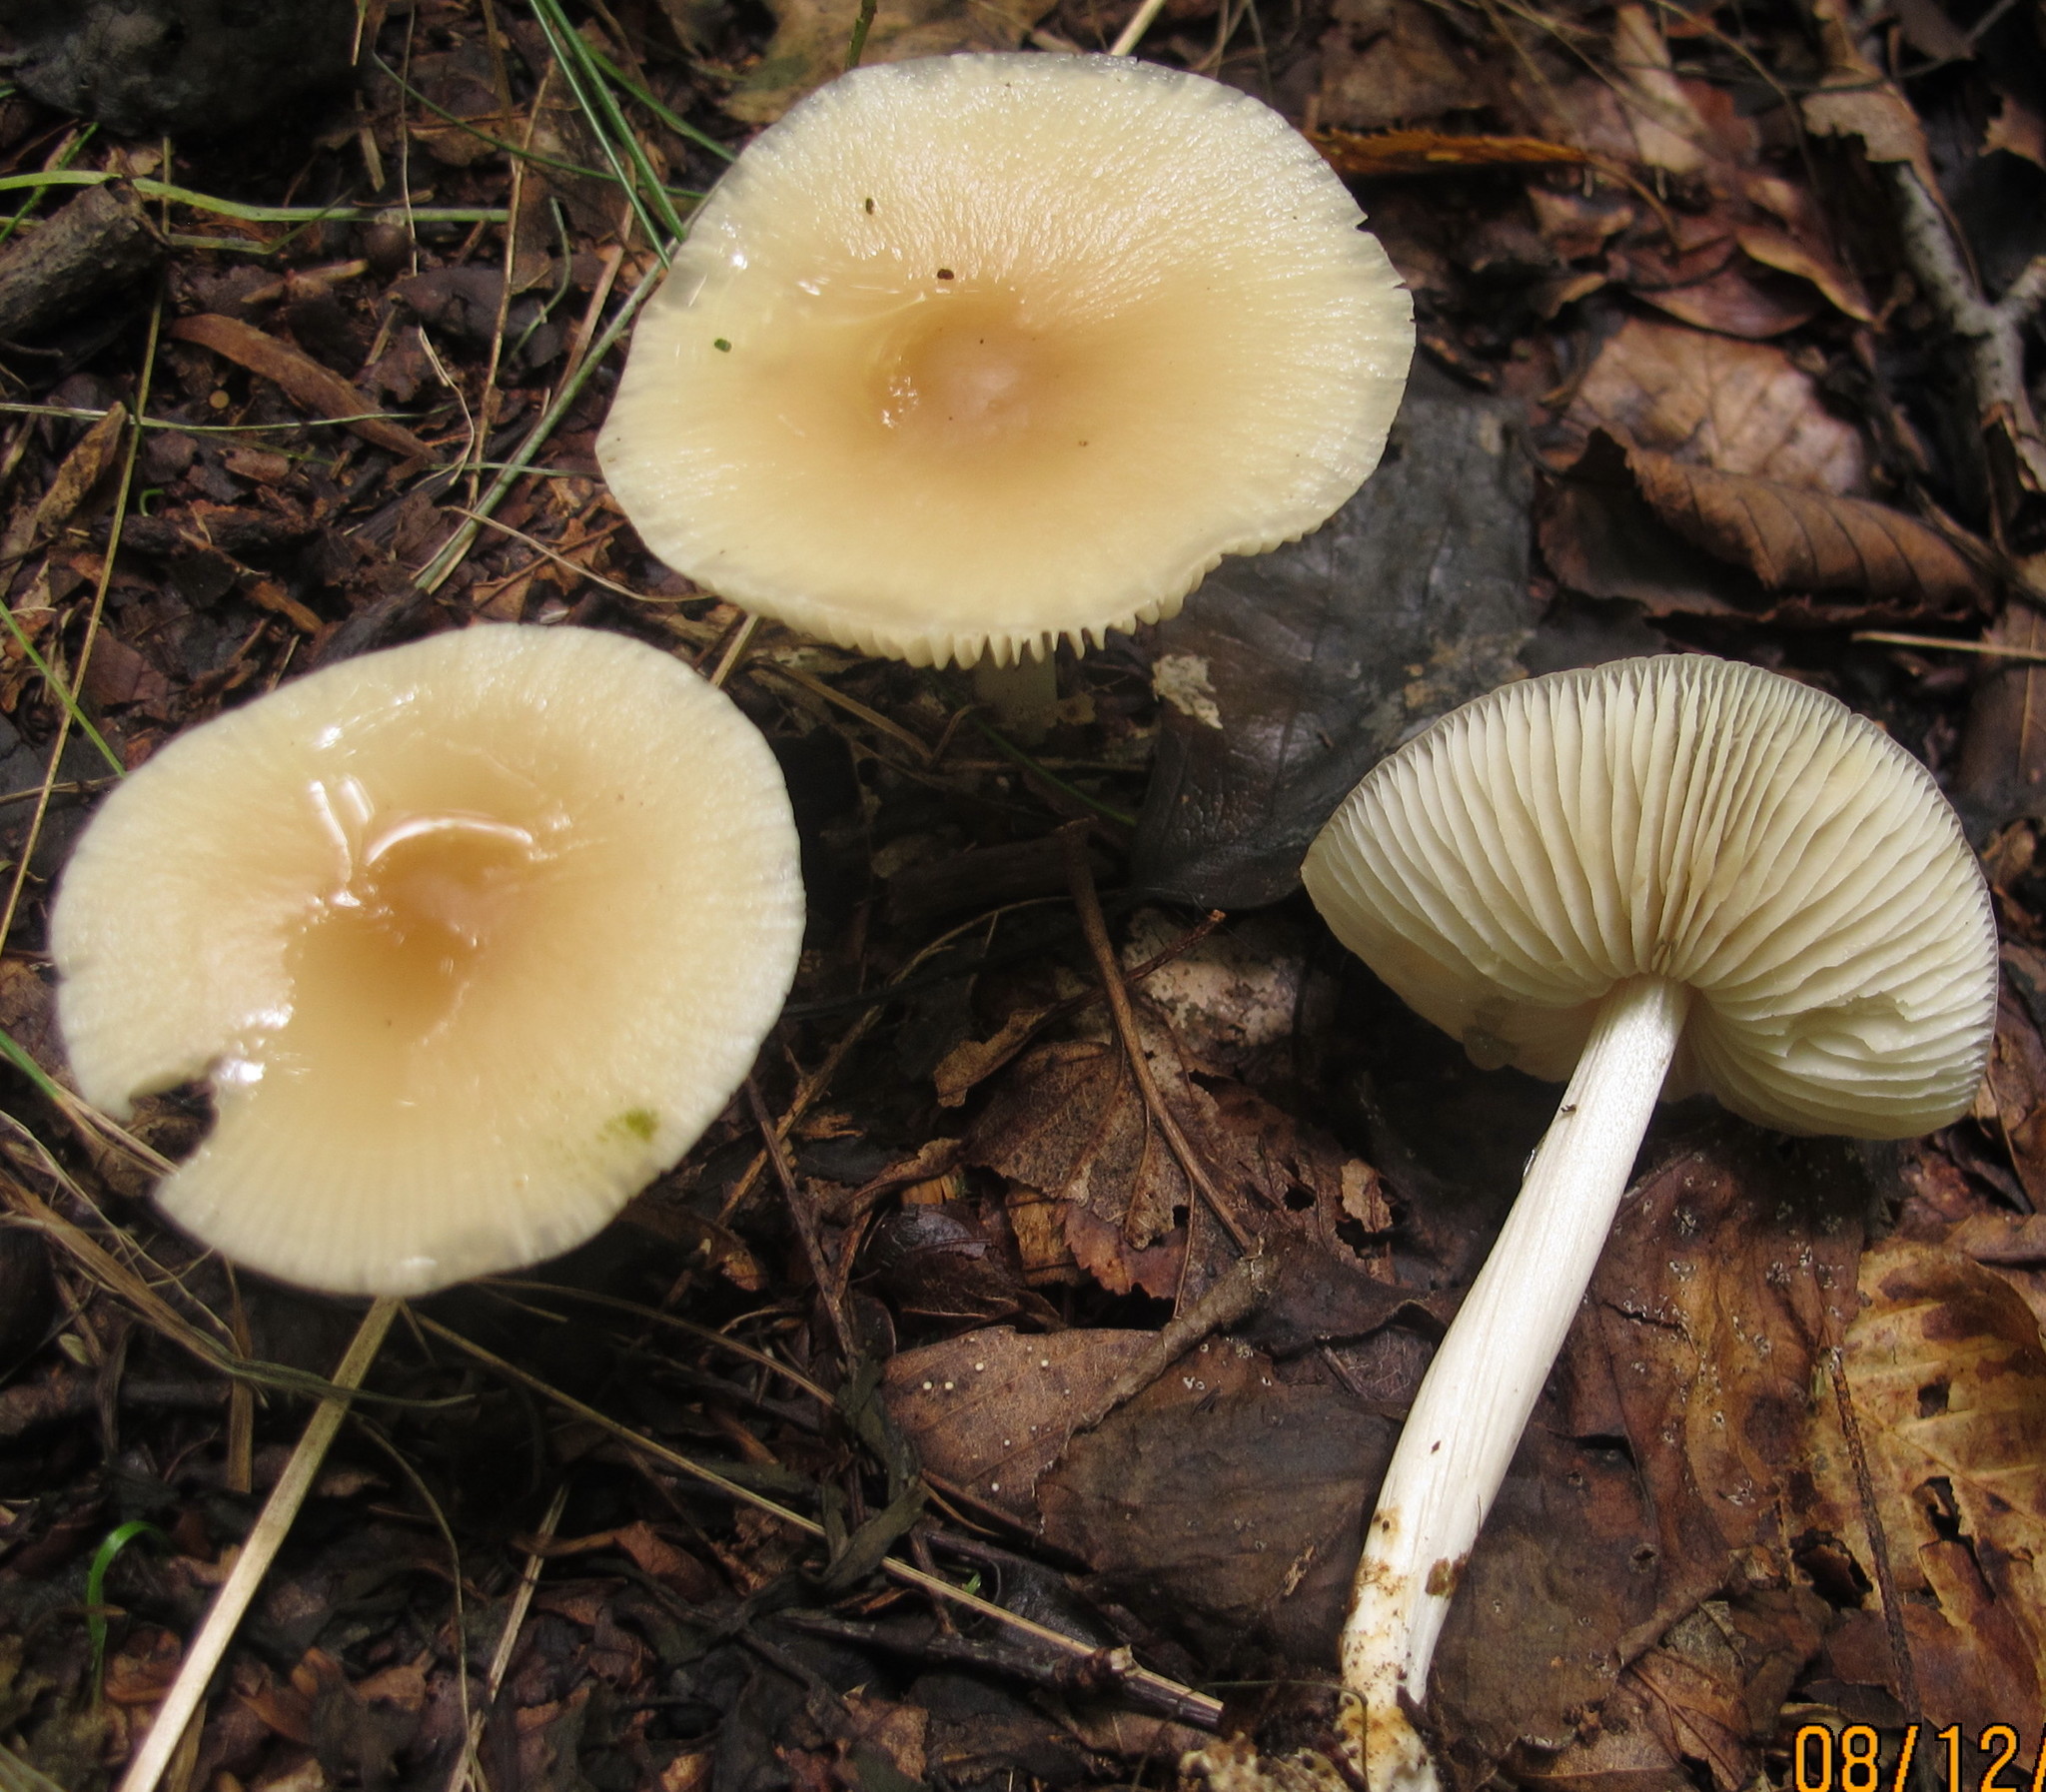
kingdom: Fungi
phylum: Basidiomycota
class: Agaricomycetes
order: Agaricales
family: Marasmiaceae
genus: Marasmius
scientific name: Marasmius nigrodiscus
